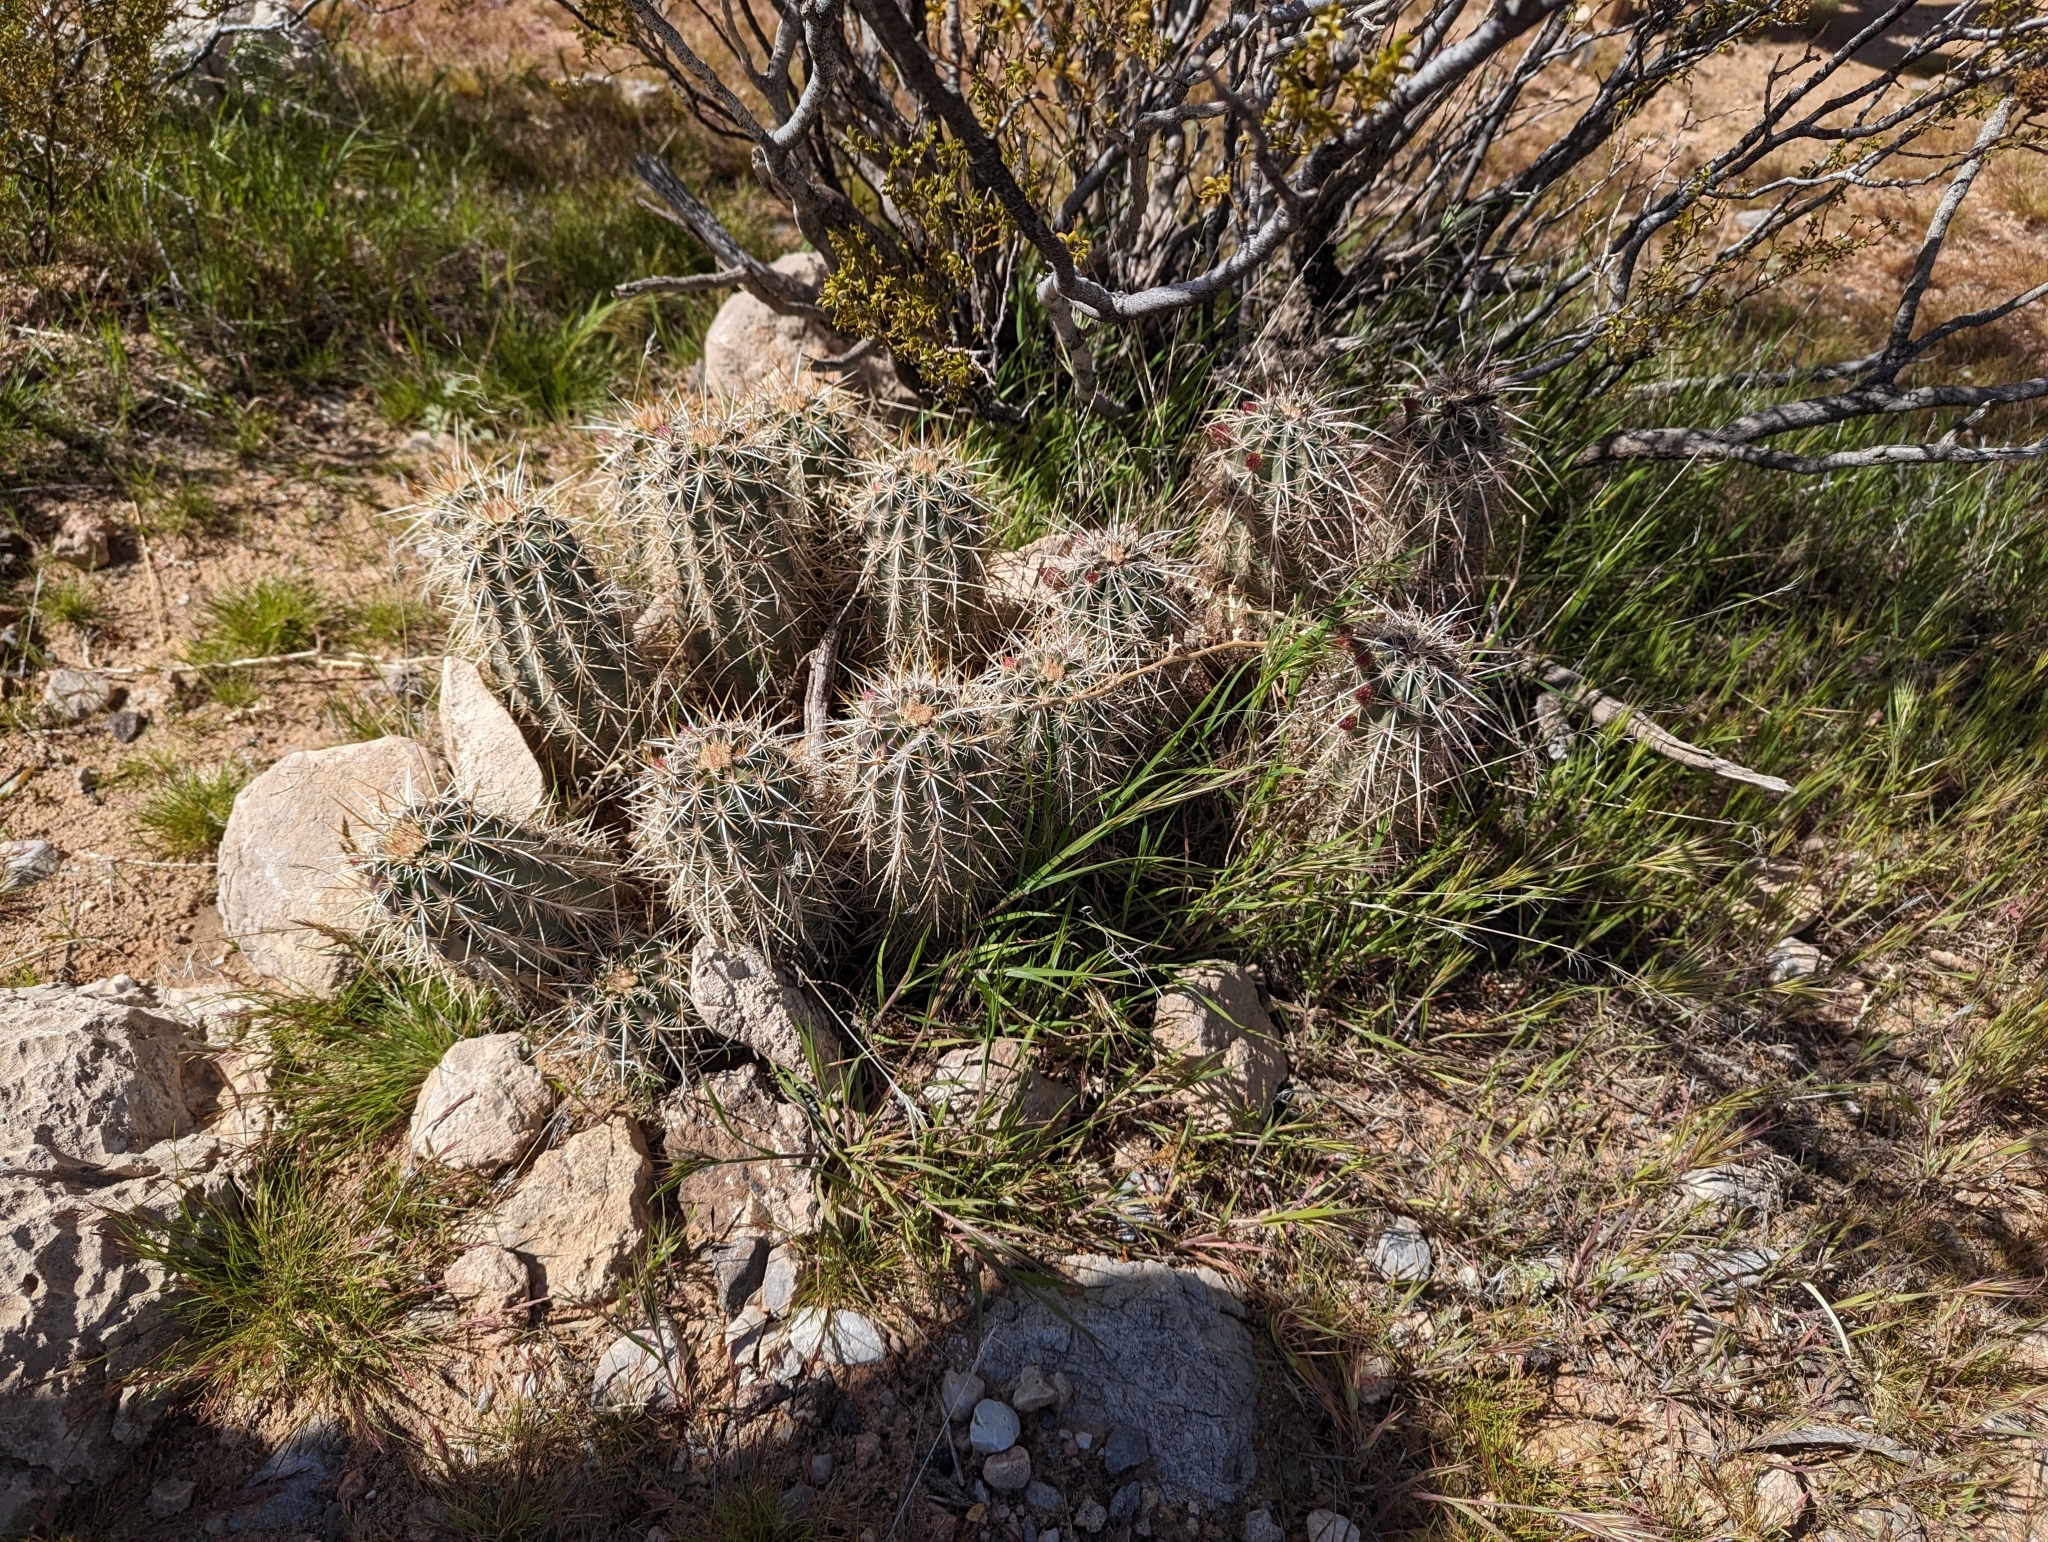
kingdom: Plantae
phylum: Tracheophyta
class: Magnoliopsida
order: Caryophyllales
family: Cactaceae
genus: Echinocereus
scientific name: Echinocereus engelmannii
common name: Engelmann's hedgehog cactus
